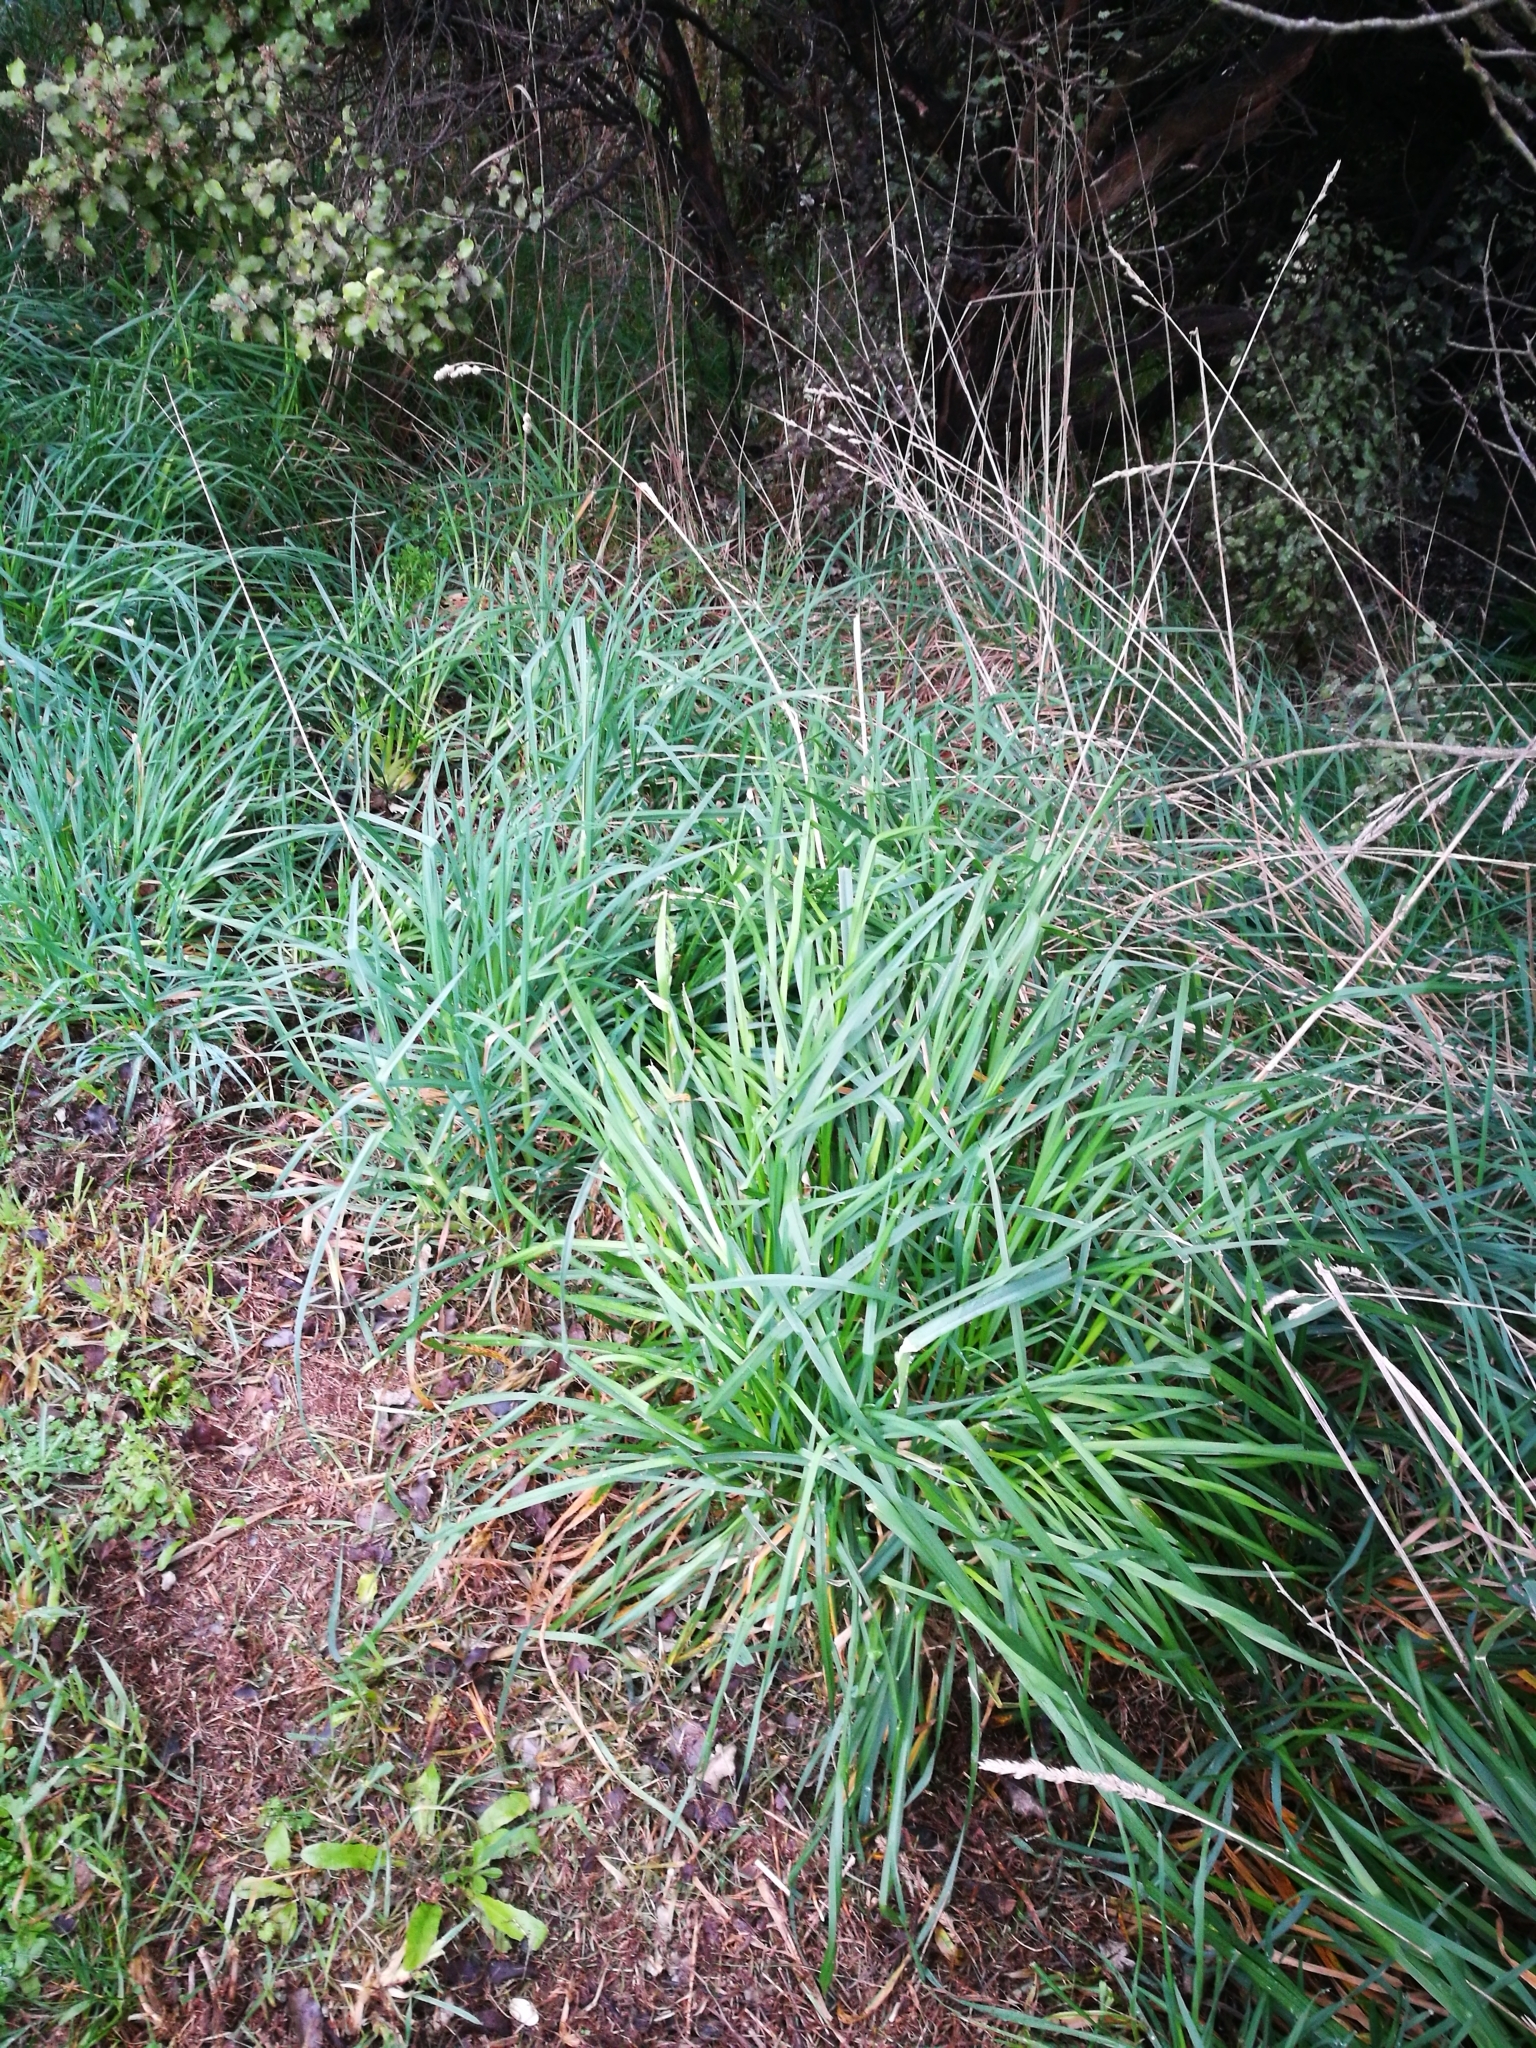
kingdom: Plantae
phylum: Tracheophyta
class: Liliopsida
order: Poales
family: Poaceae
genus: Dactylis
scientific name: Dactylis glomerata
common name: Orchardgrass
